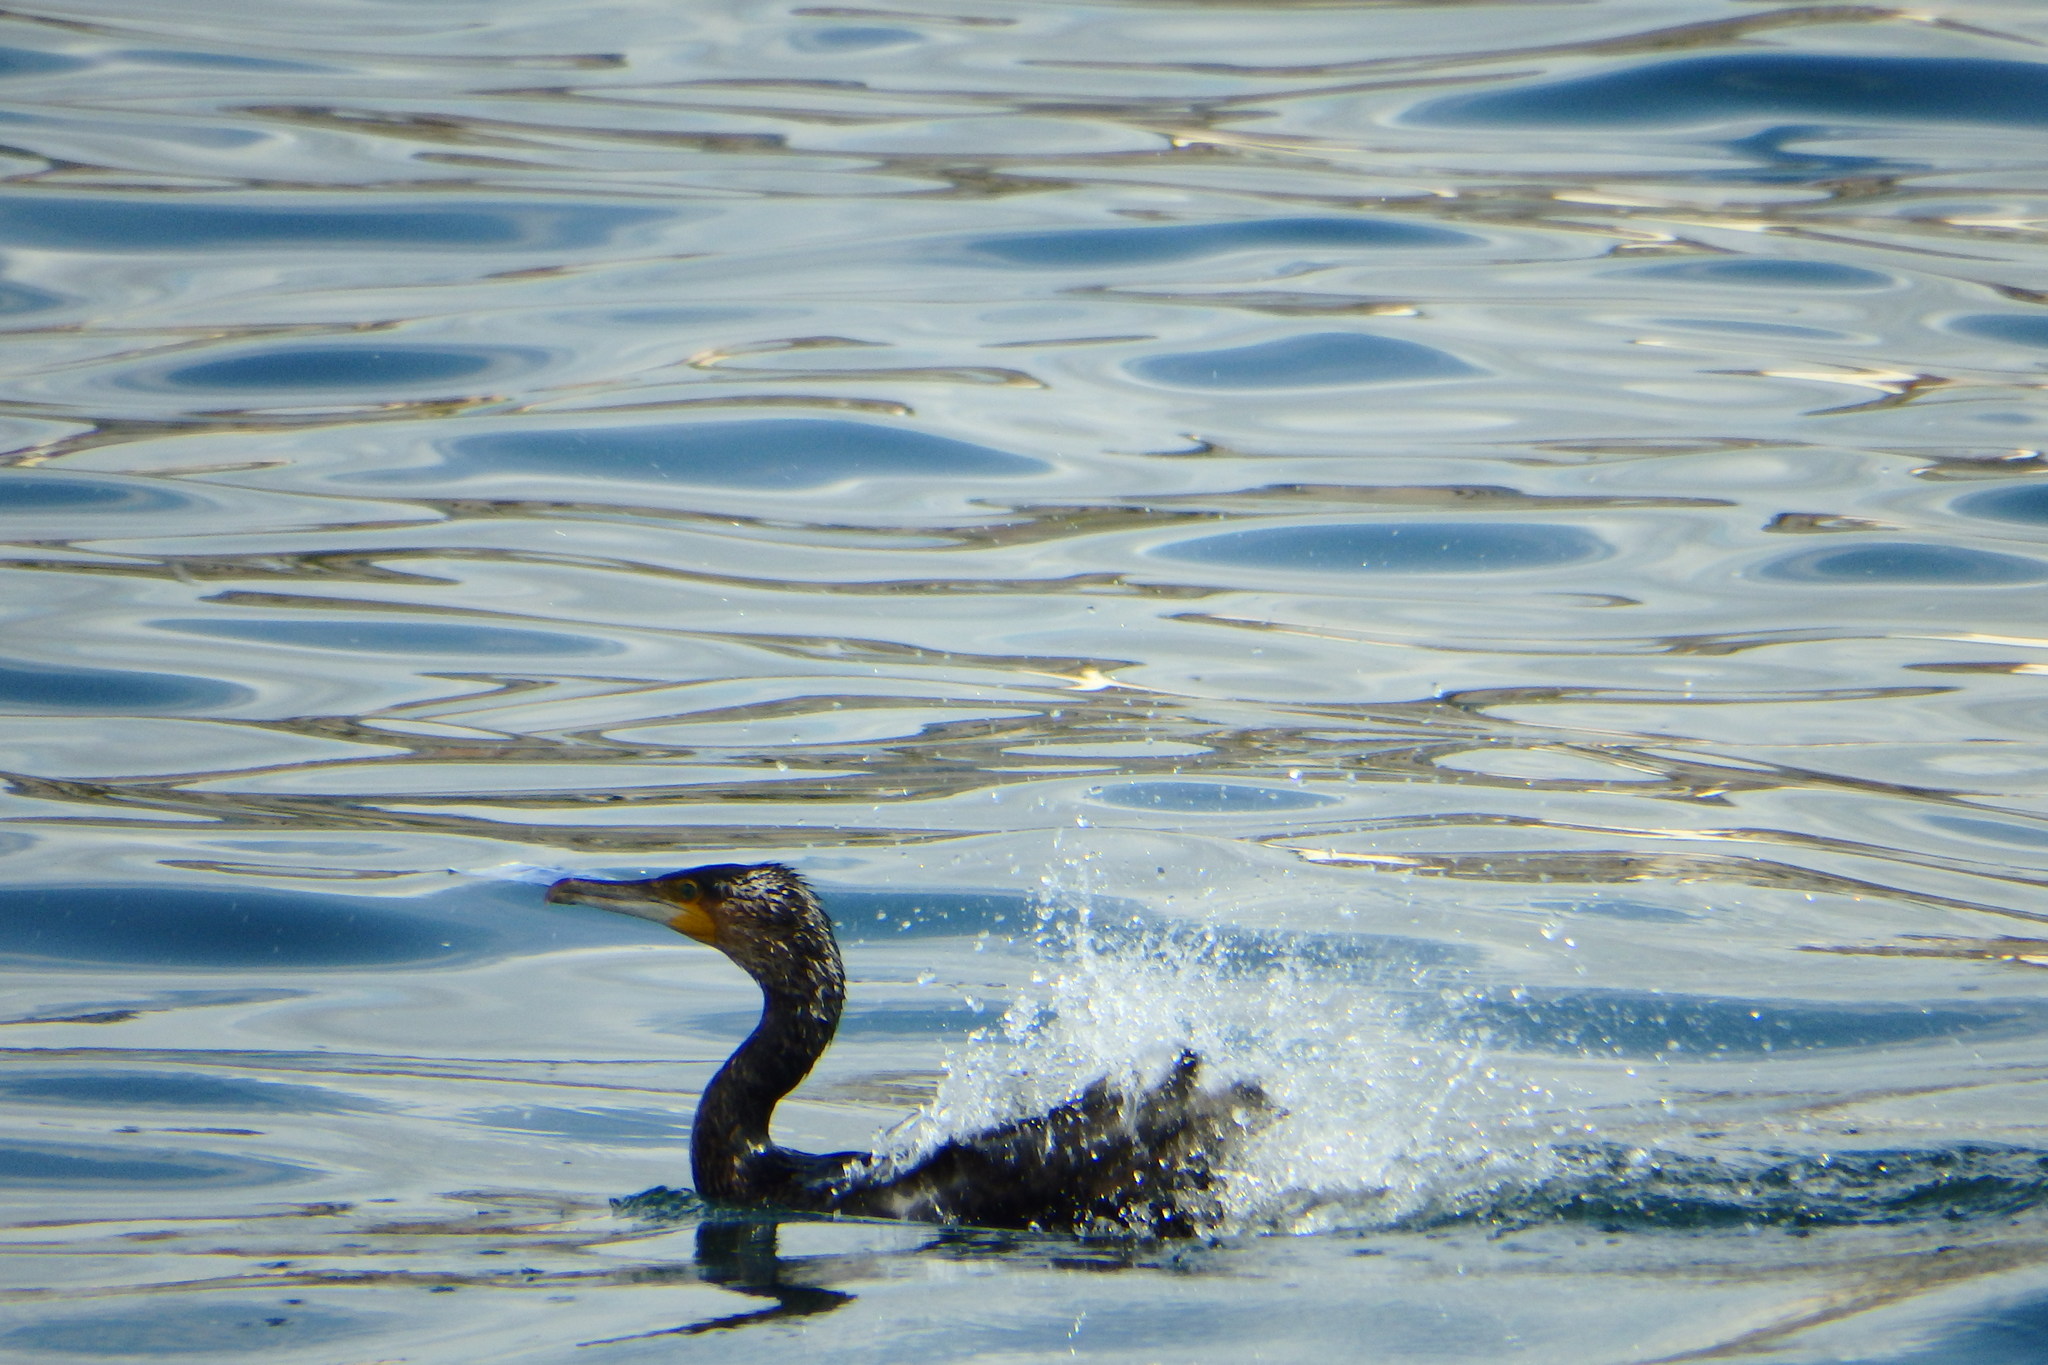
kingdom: Animalia
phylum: Chordata
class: Aves
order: Suliformes
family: Phalacrocoracidae
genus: Phalacrocorax
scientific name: Phalacrocorax carbo
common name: Great cormorant
